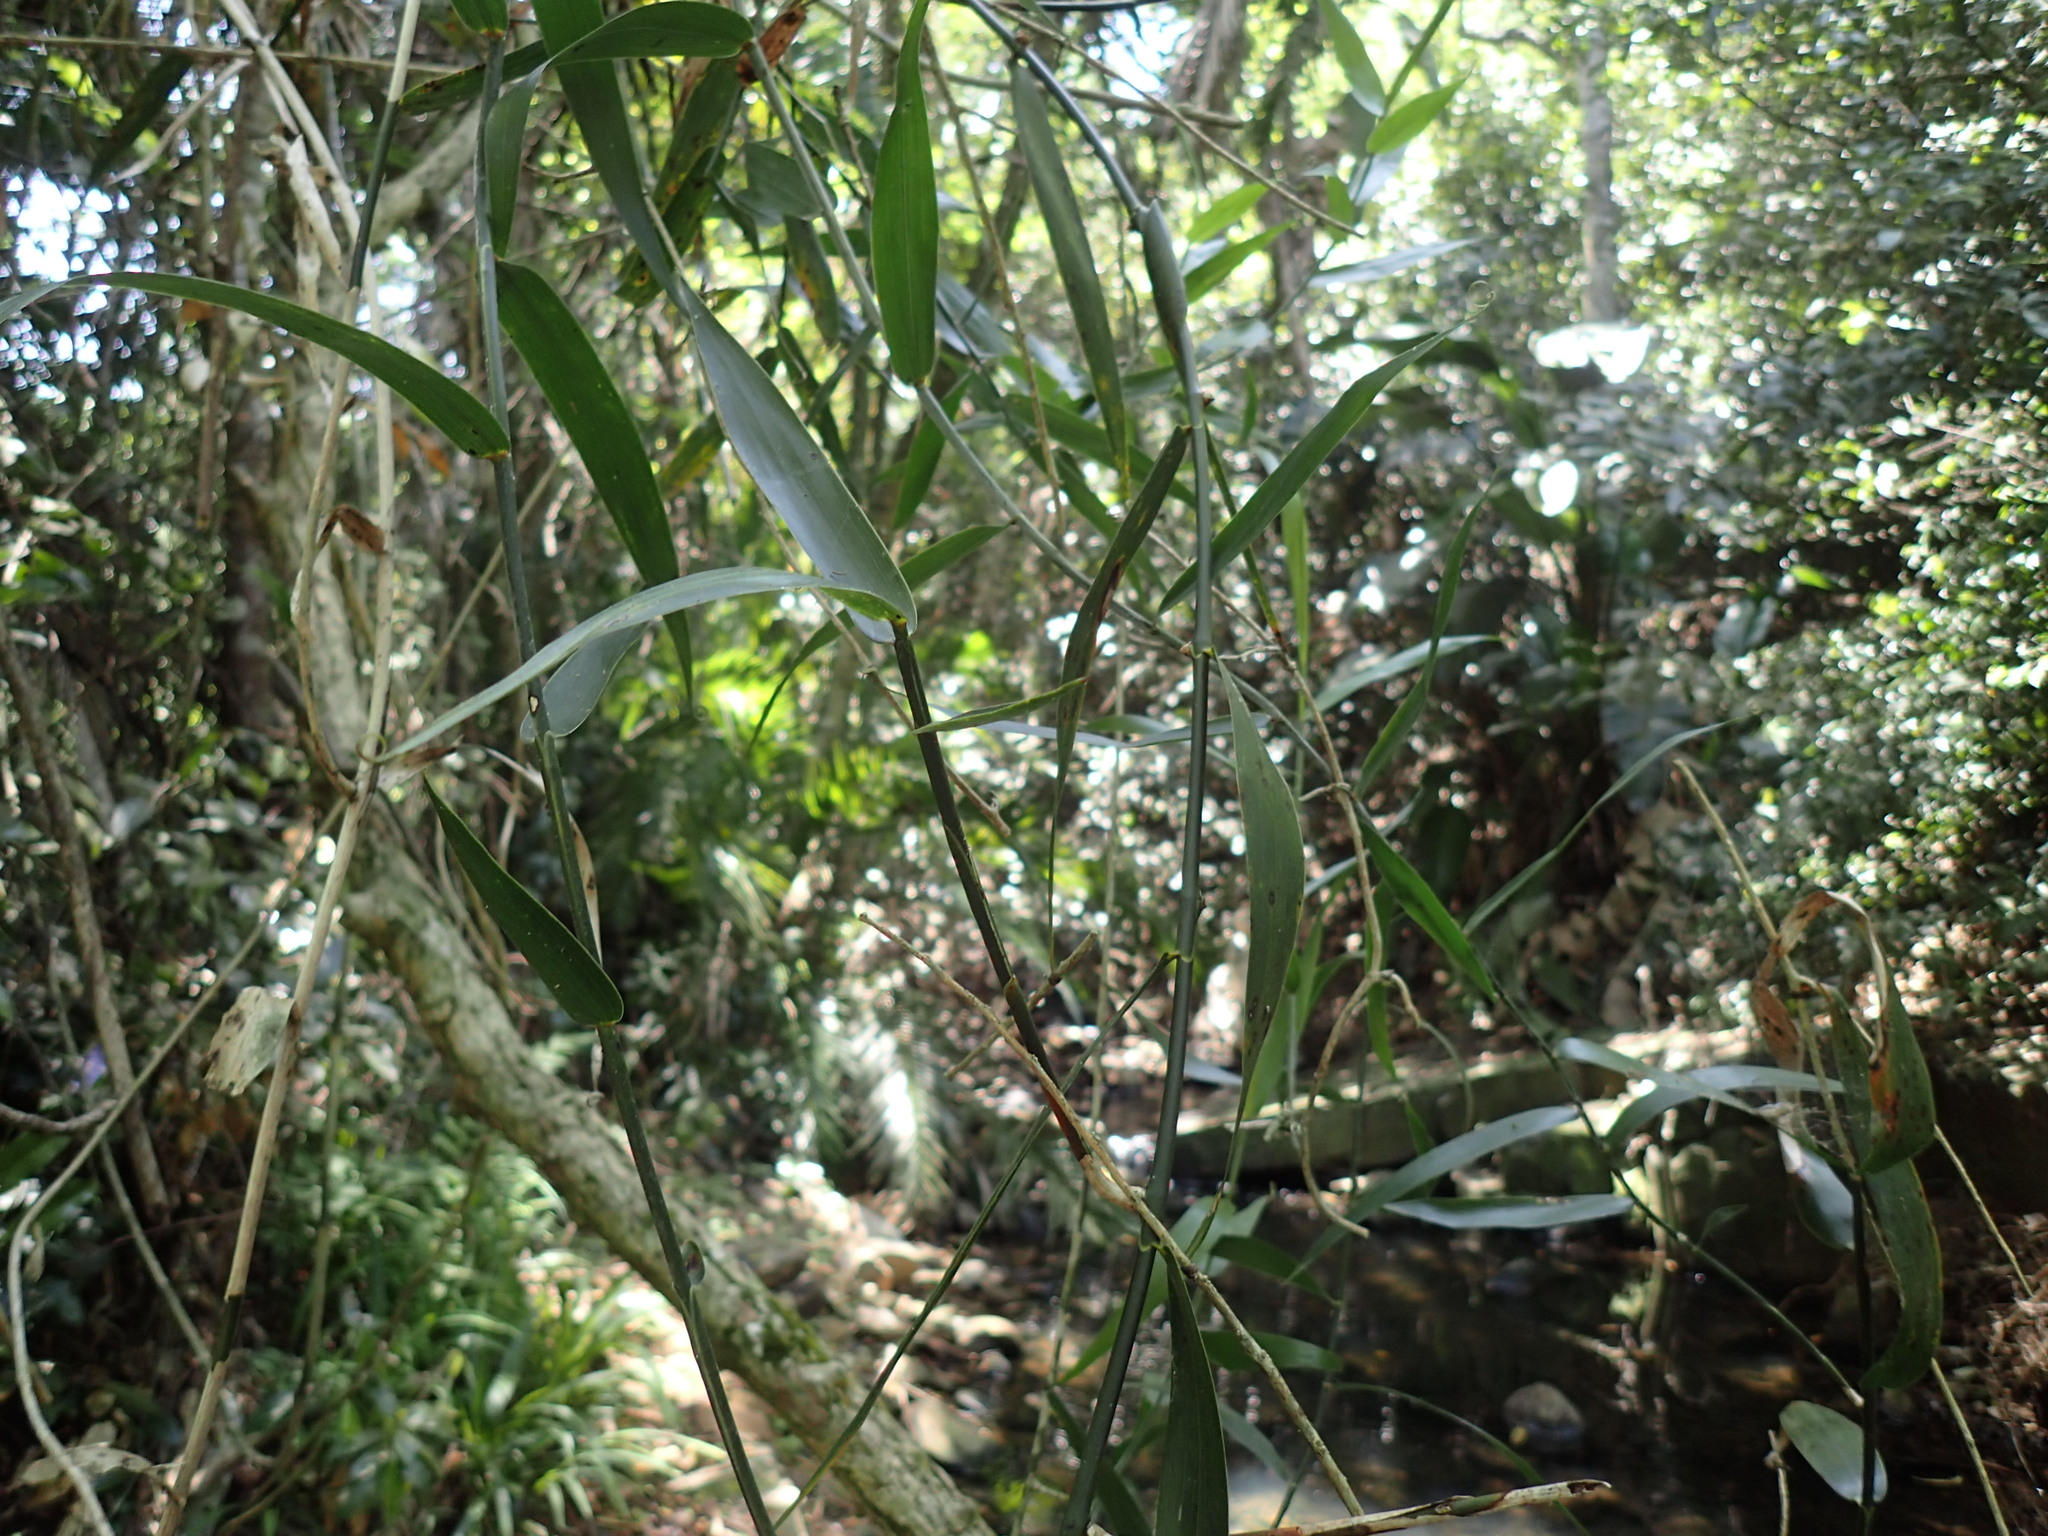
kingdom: Plantae
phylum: Tracheophyta
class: Liliopsida
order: Poales
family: Flagellariaceae
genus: Flagellaria
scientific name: Flagellaria guineensis
